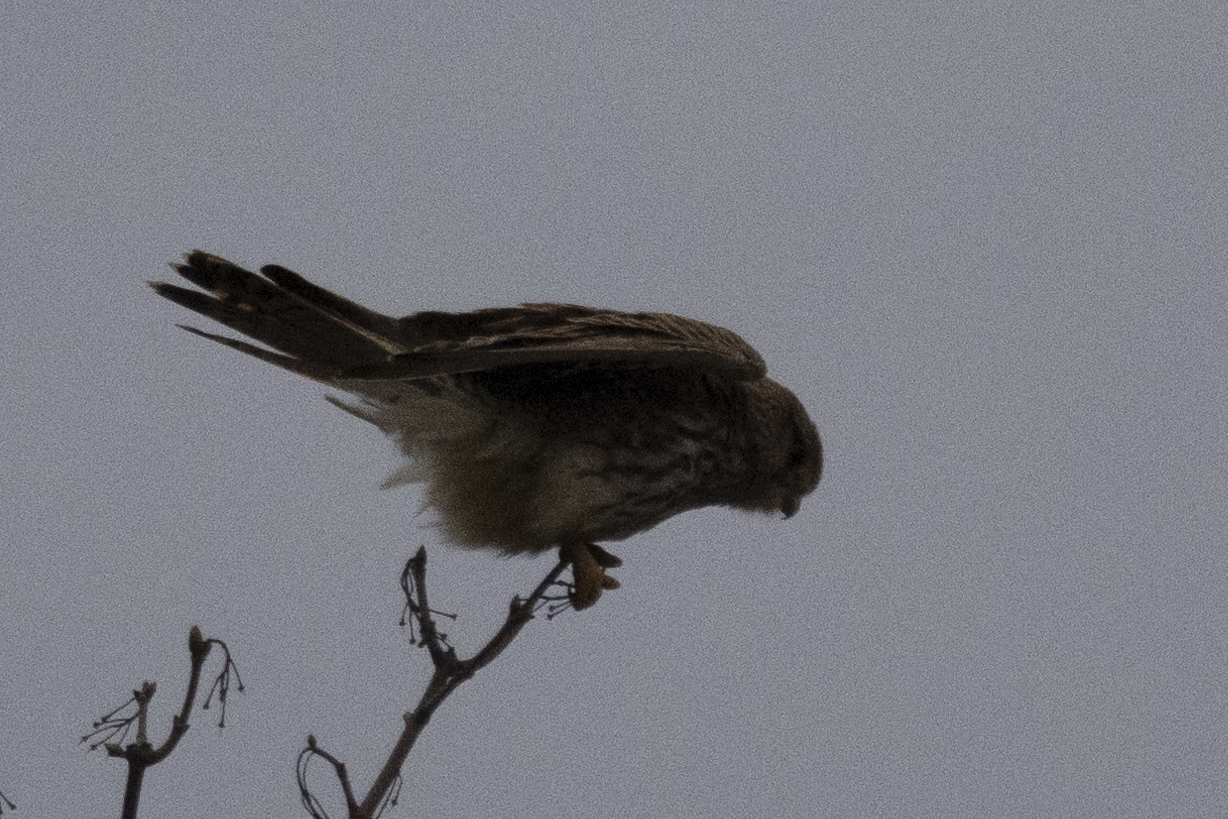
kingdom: Animalia
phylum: Chordata
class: Aves
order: Falconiformes
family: Falconidae
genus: Falco
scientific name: Falco tinnunculus
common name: Common kestrel
